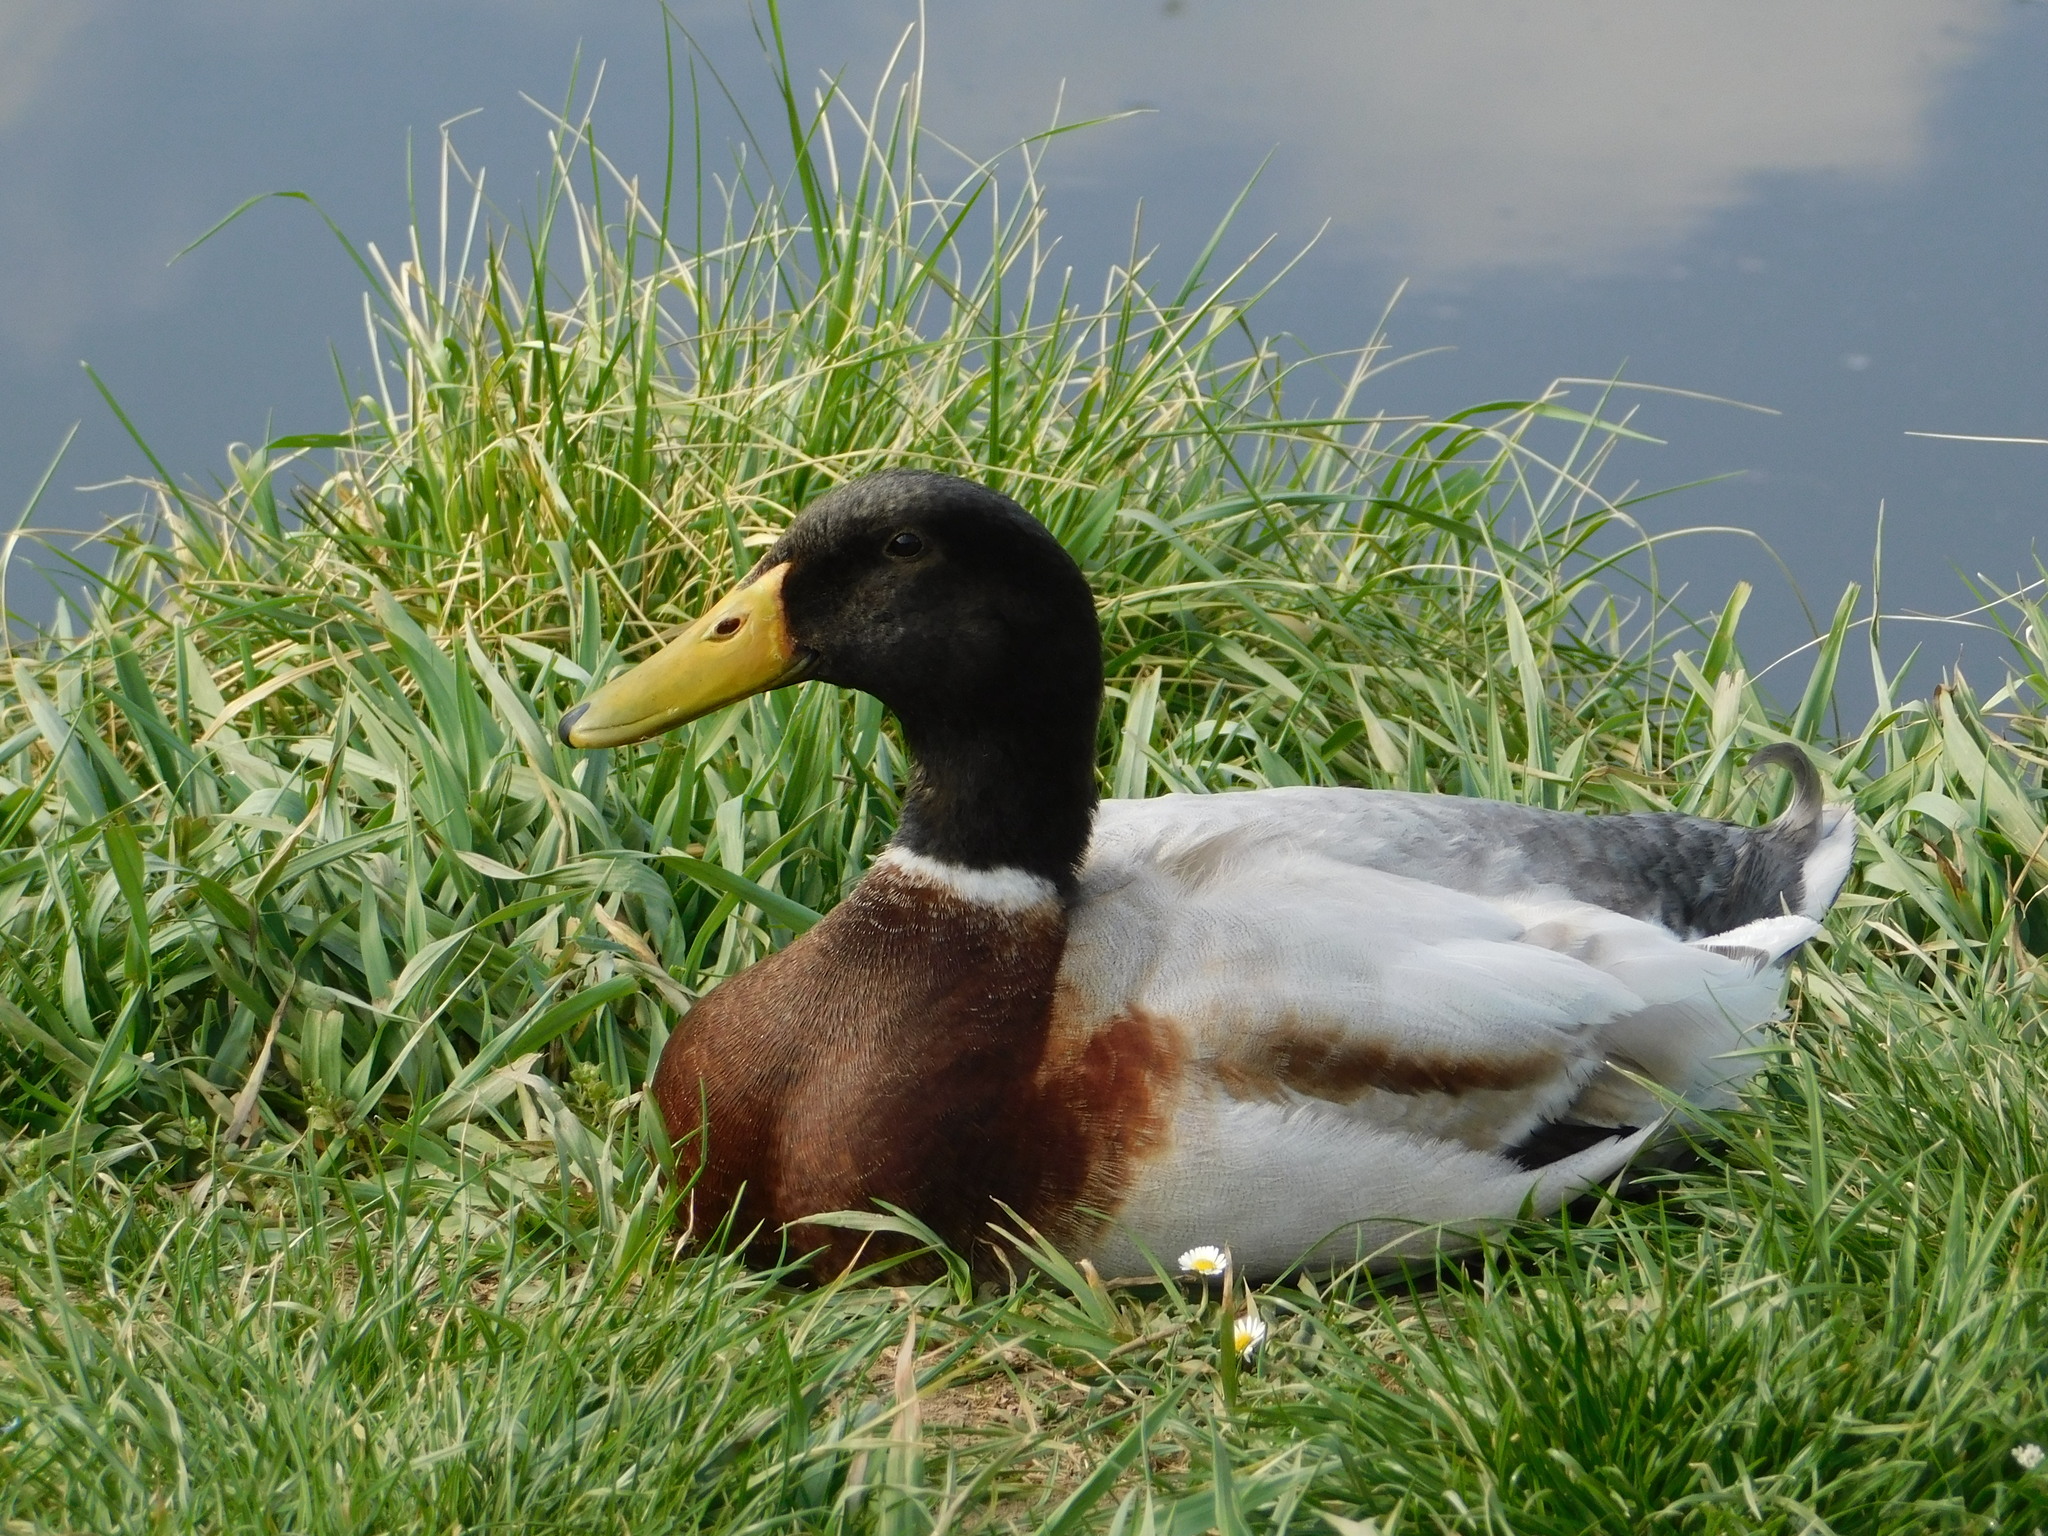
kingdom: Animalia
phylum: Chordata
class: Aves
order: Anseriformes
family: Anatidae
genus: Anas
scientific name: Anas platyrhynchos
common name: Mallard
